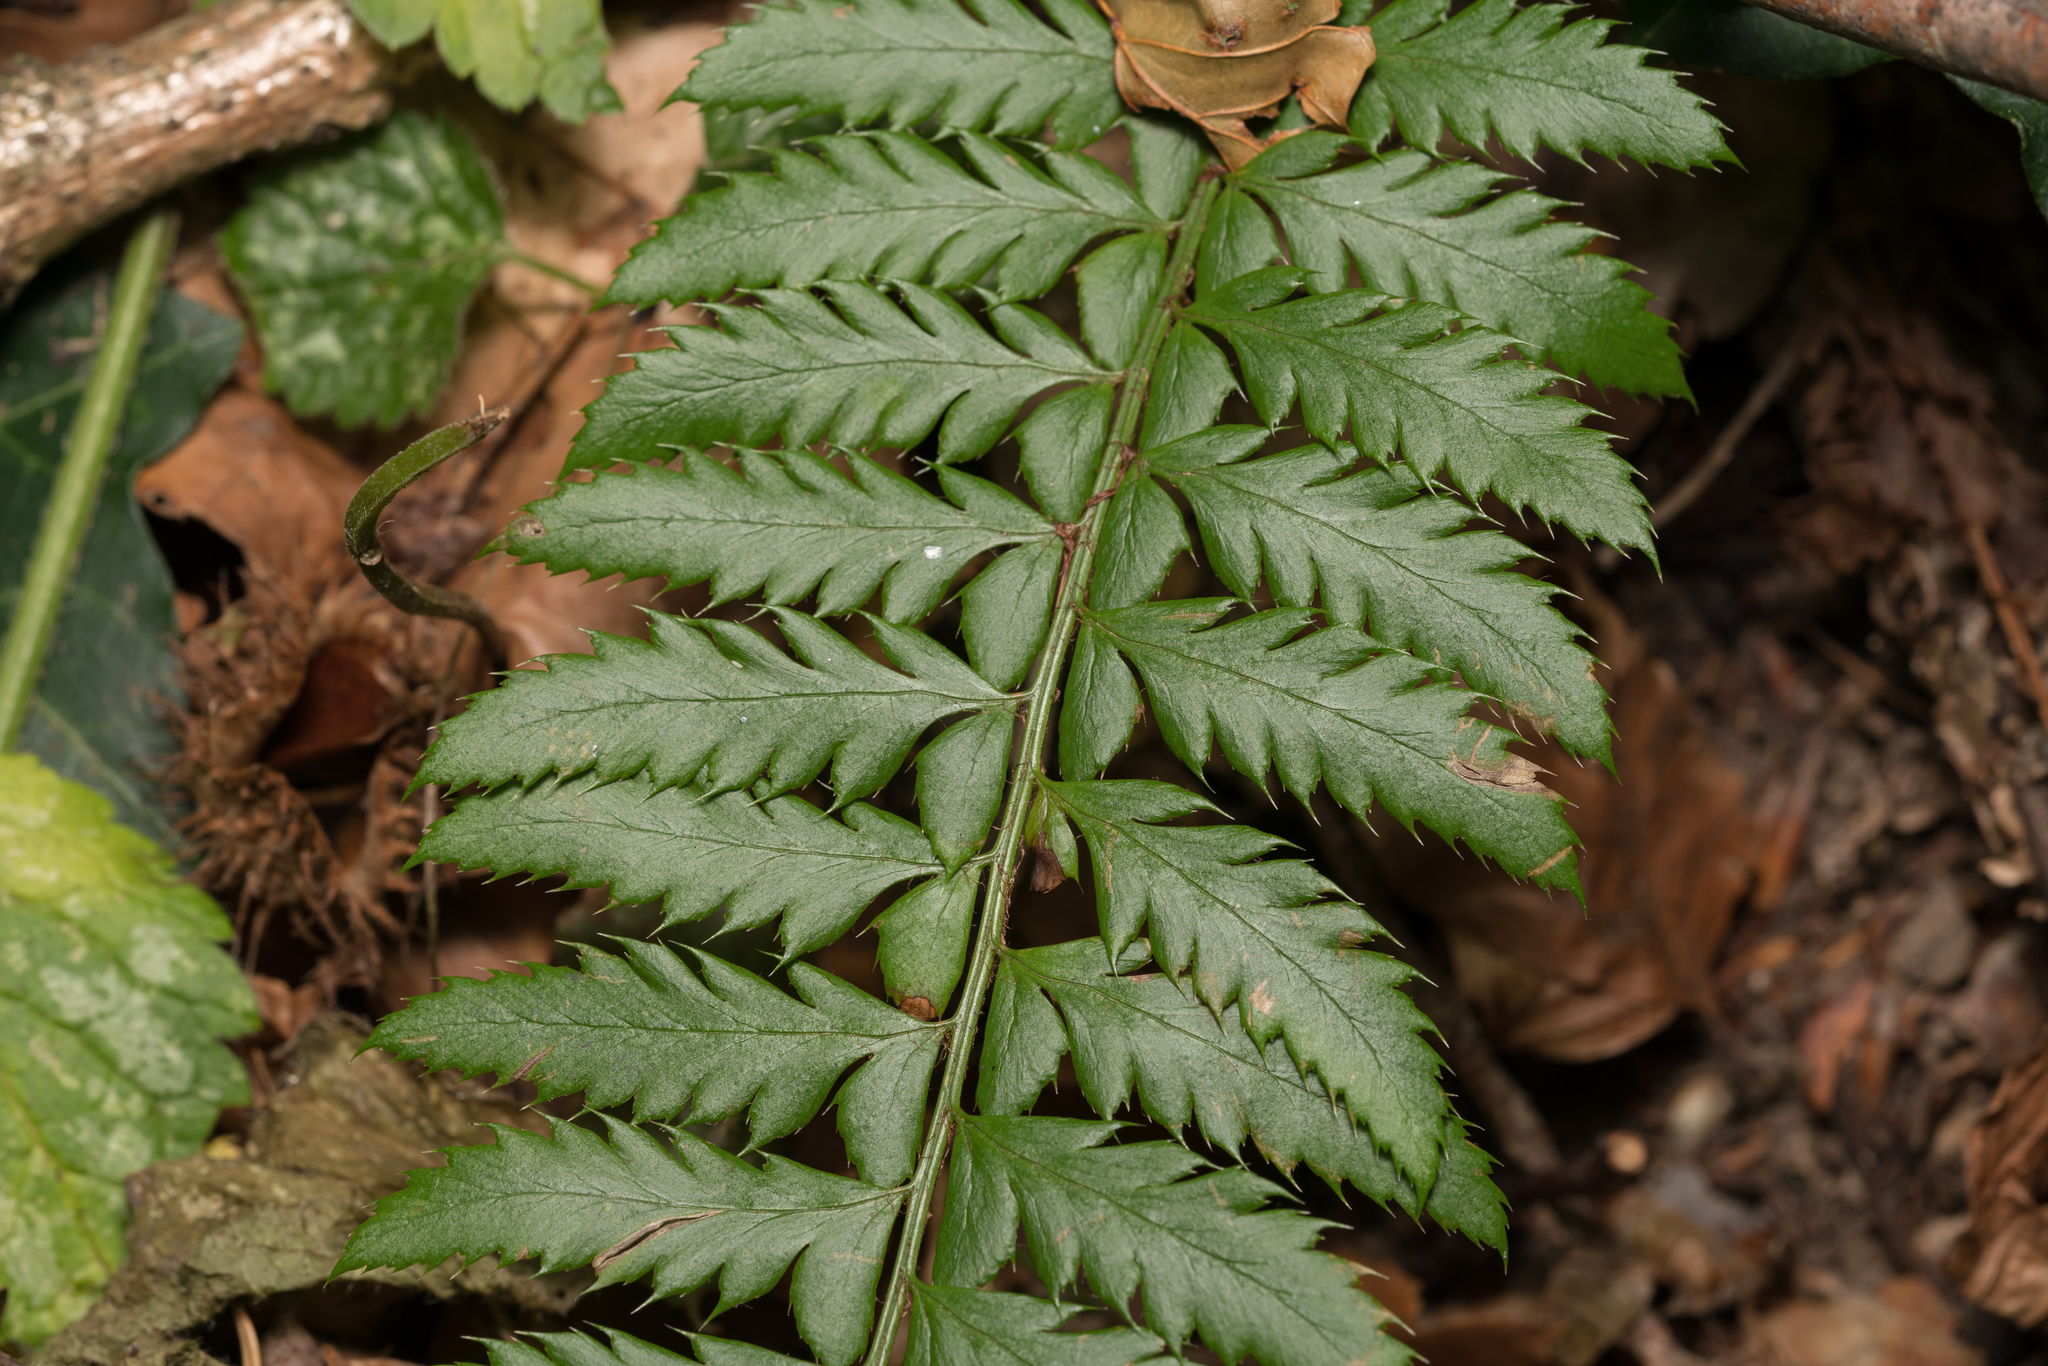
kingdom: Plantae
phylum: Tracheophyta
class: Polypodiopsida
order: Polypodiales
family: Dryopteridaceae
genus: Polystichum
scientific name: Polystichum aculeatum
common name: Hard shield-fern
